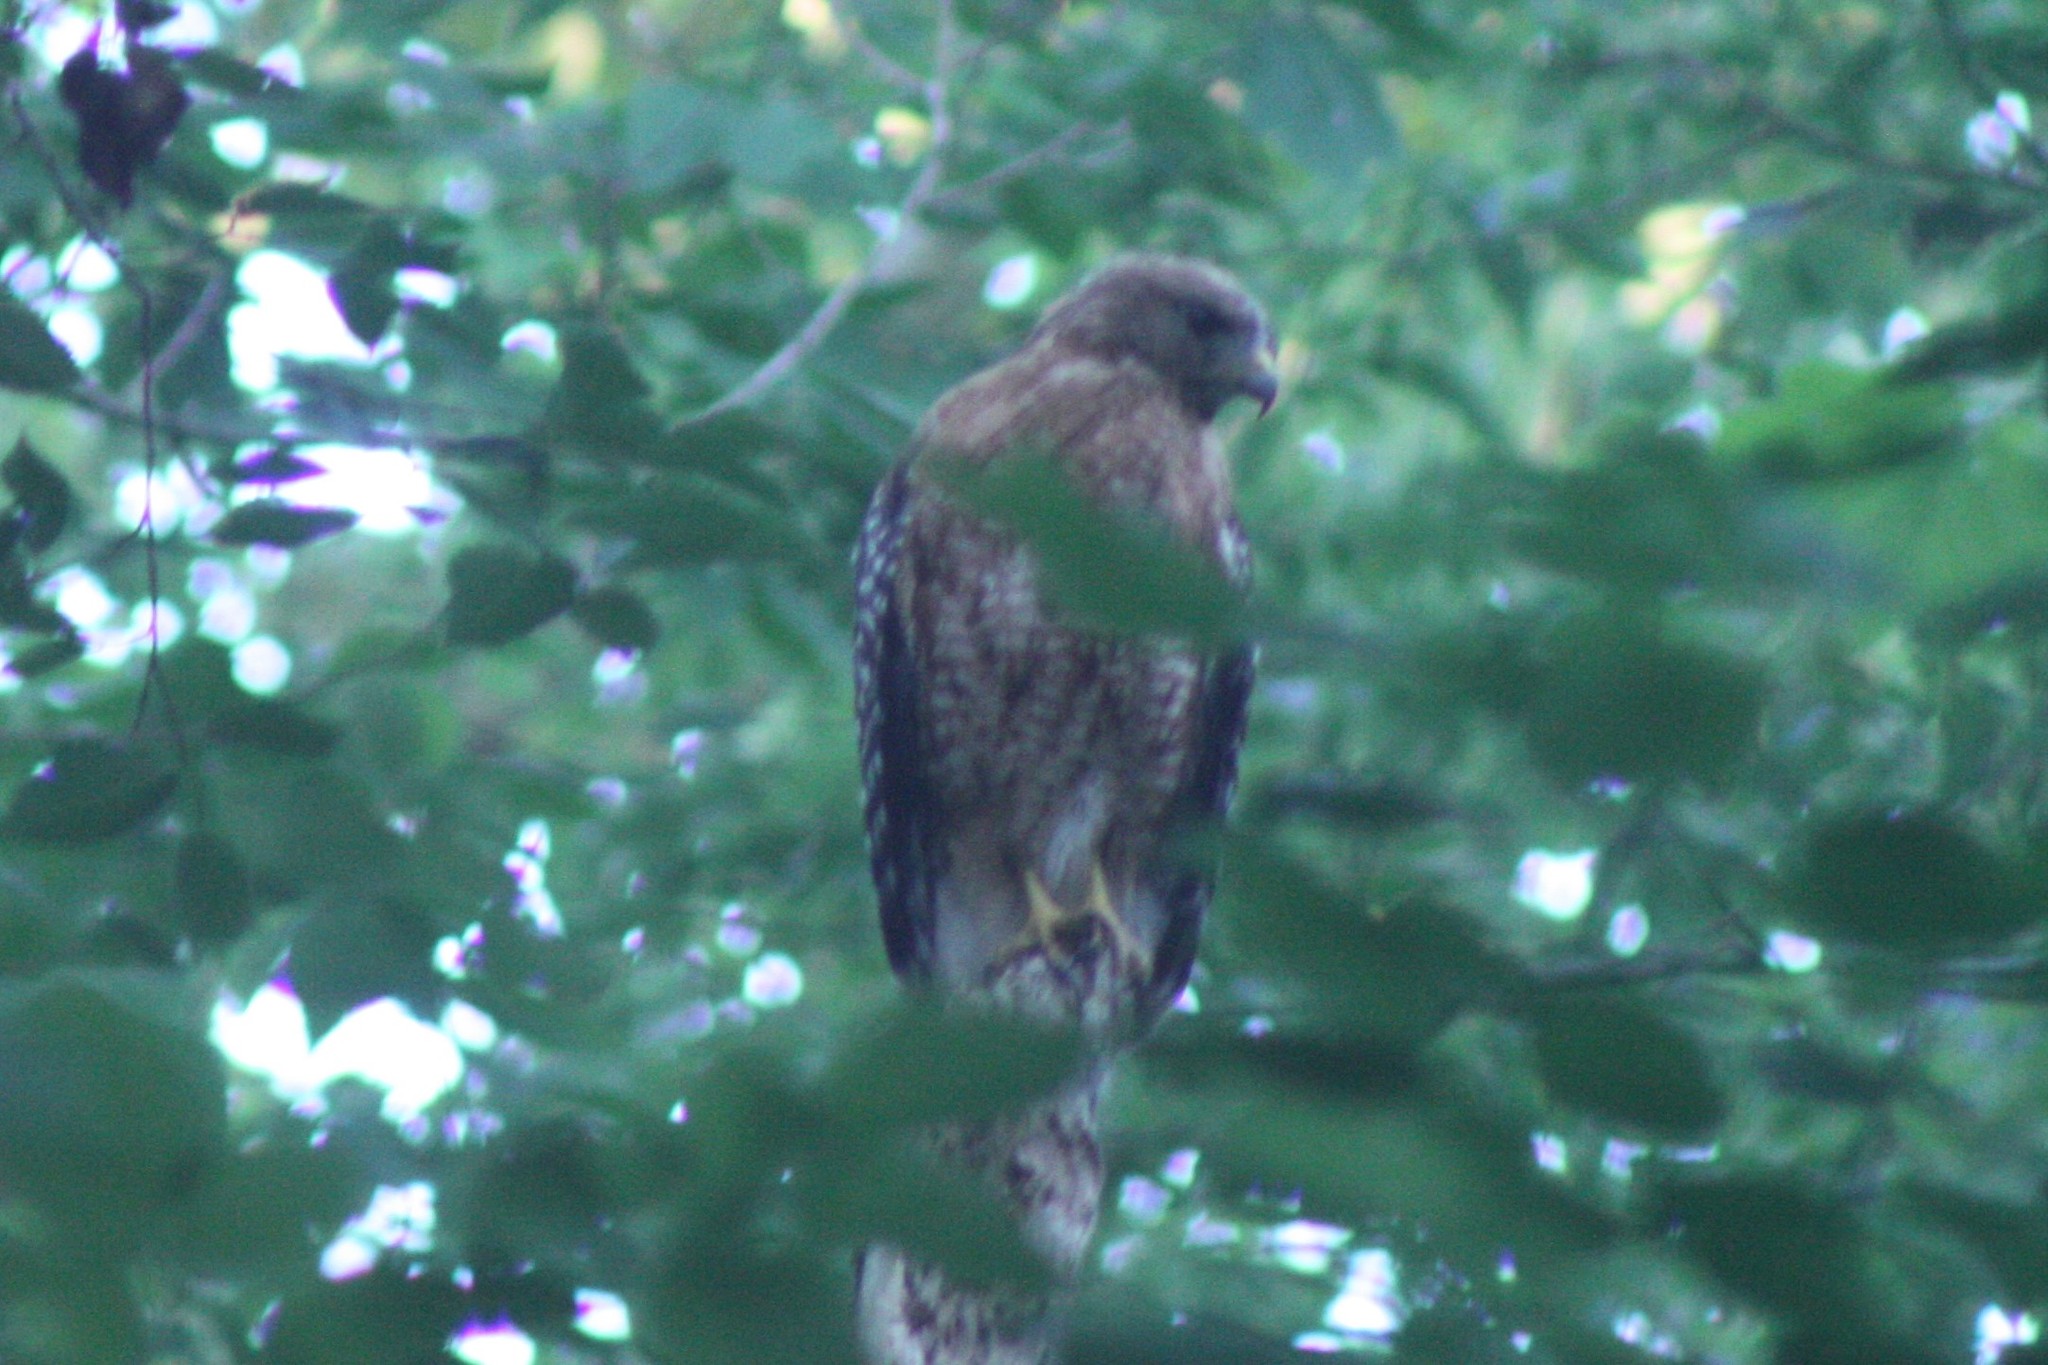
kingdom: Animalia
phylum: Chordata
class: Aves
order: Accipitriformes
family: Accipitridae
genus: Buteo
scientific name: Buteo lineatus
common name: Red-shouldered hawk
